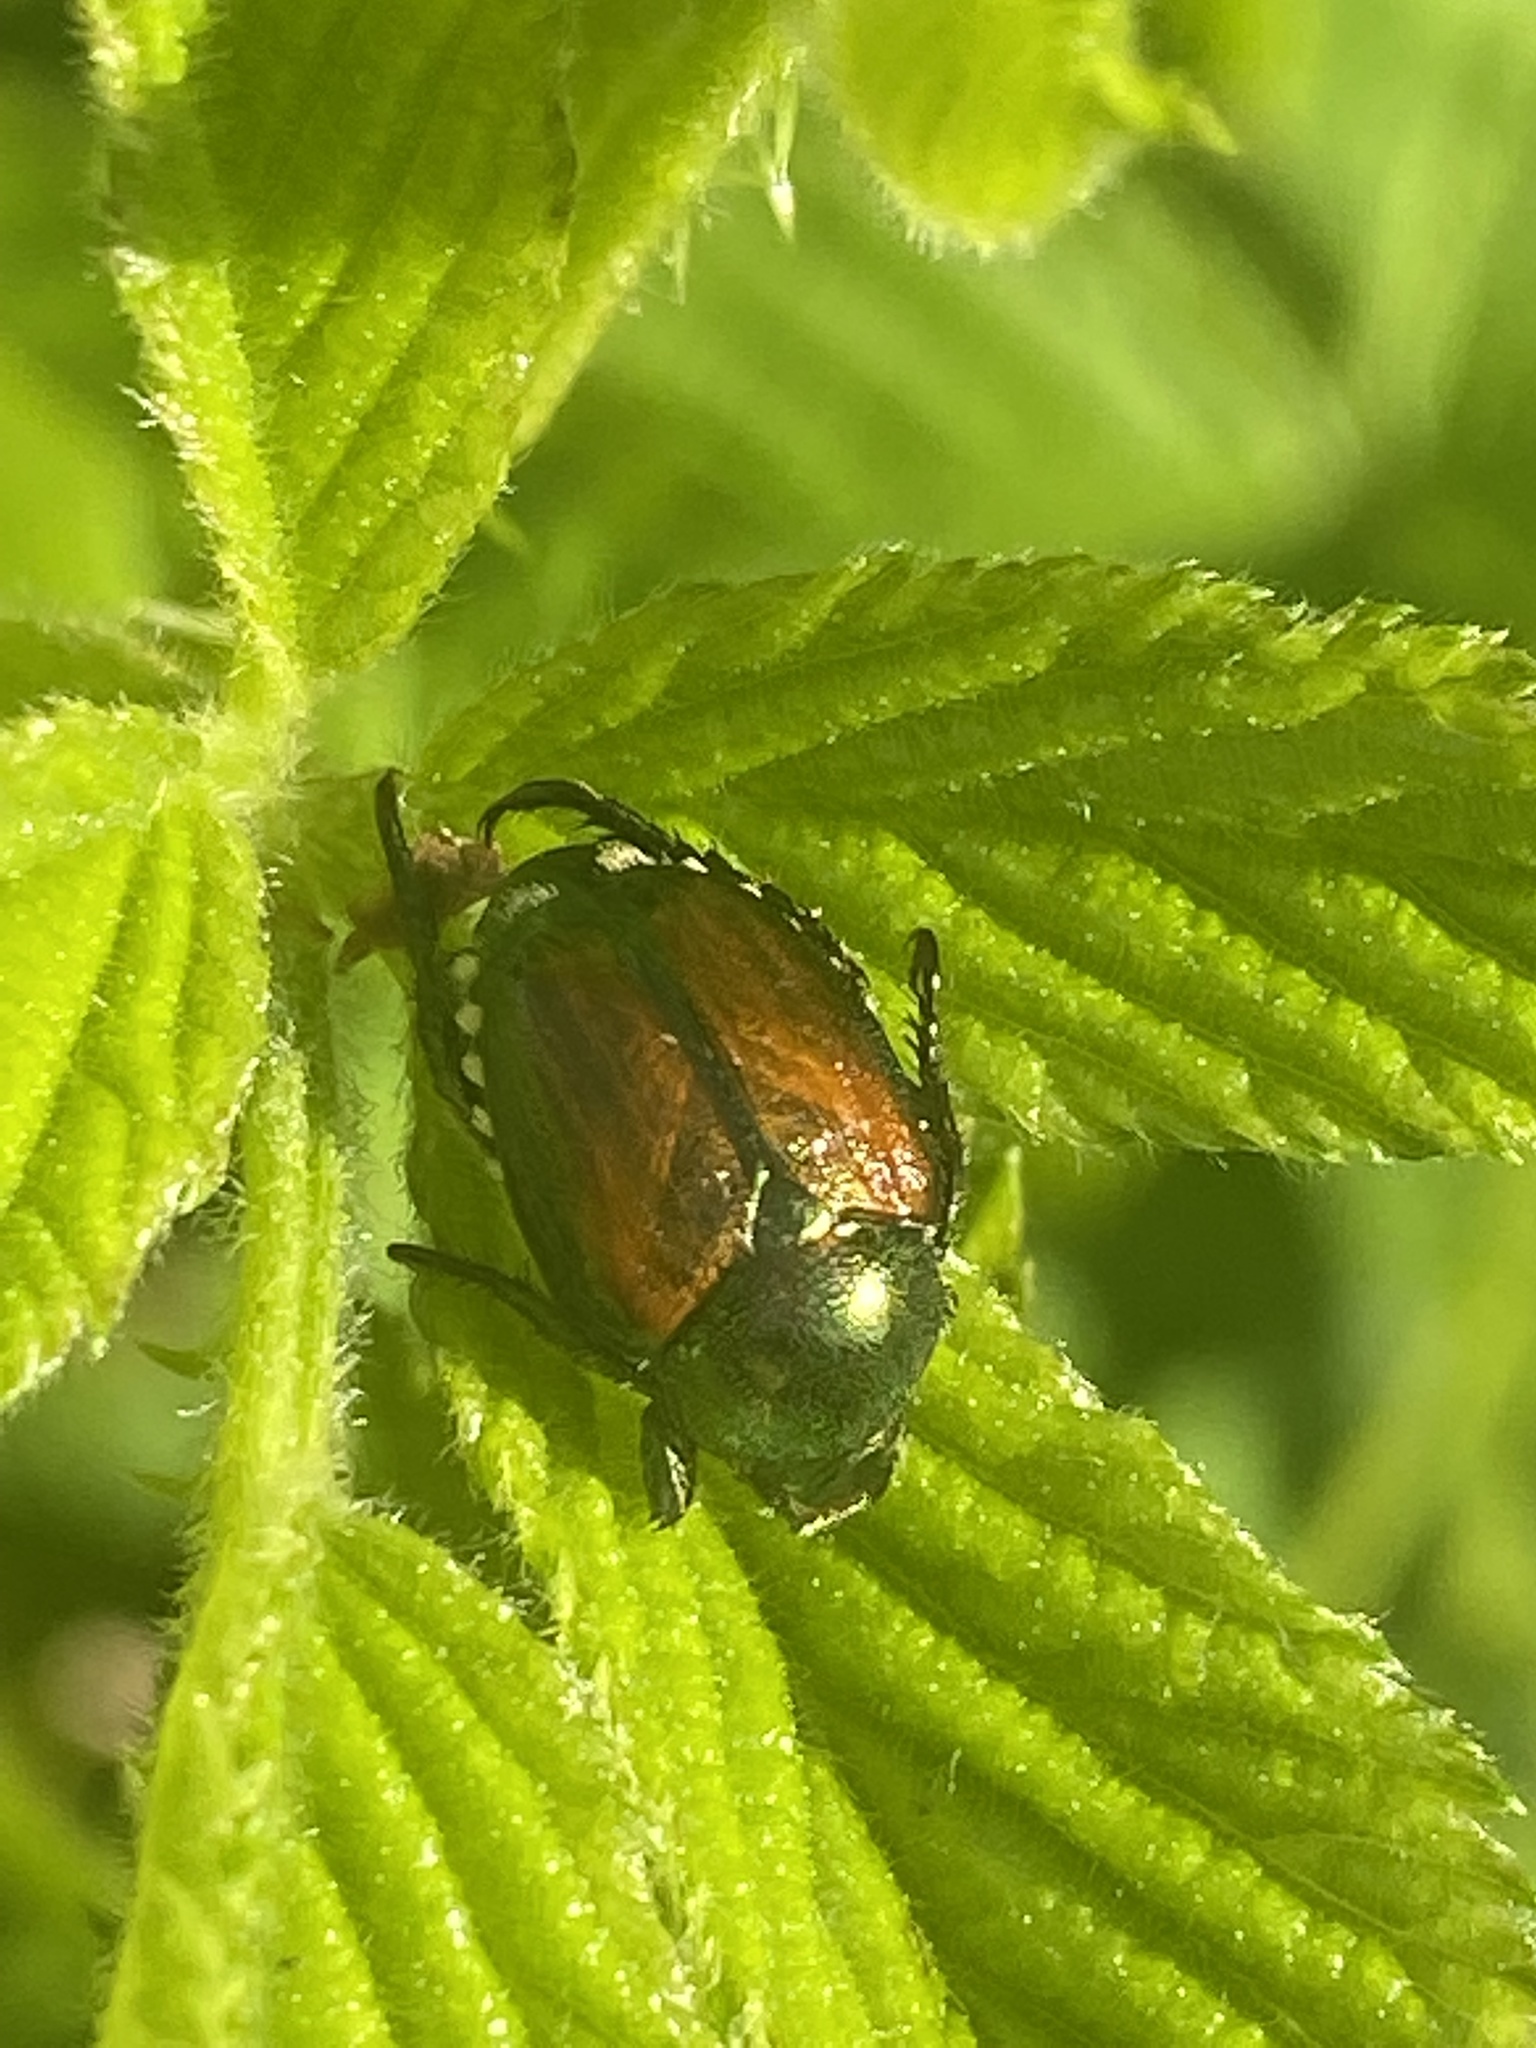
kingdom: Animalia
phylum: Arthropoda
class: Insecta
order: Coleoptera
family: Scarabaeidae
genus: Popillia
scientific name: Popillia japonica
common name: Japanese beetle
